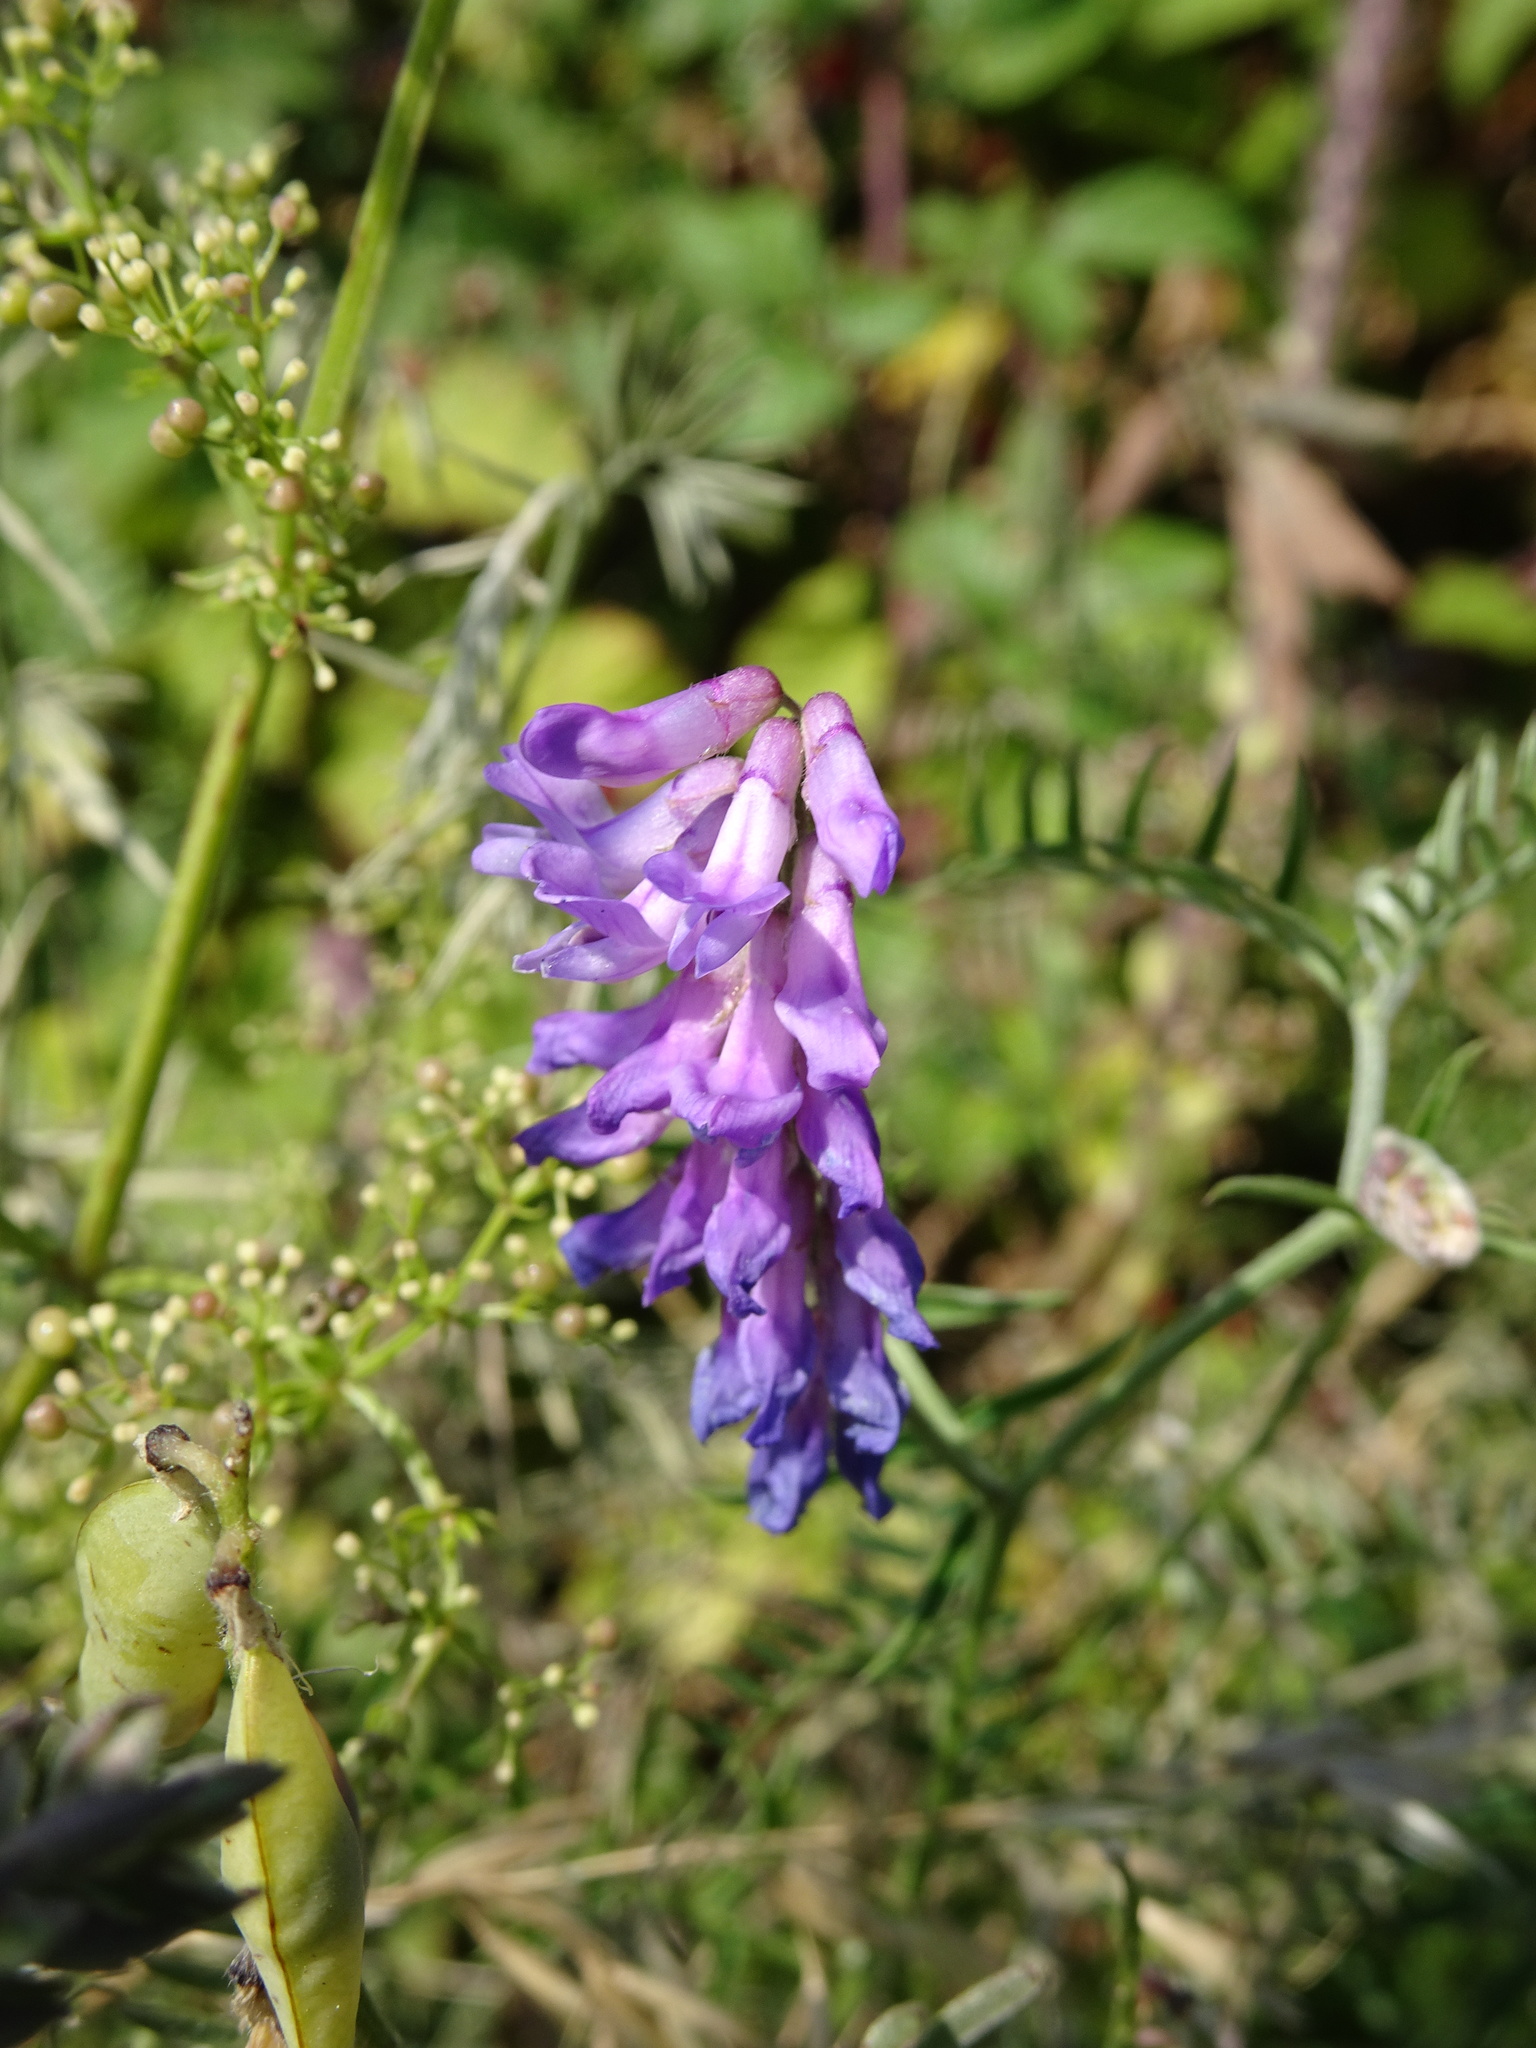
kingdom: Plantae
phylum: Tracheophyta
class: Magnoliopsida
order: Fabales
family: Fabaceae
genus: Vicia
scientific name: Vicia cracca
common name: Bird vetch
